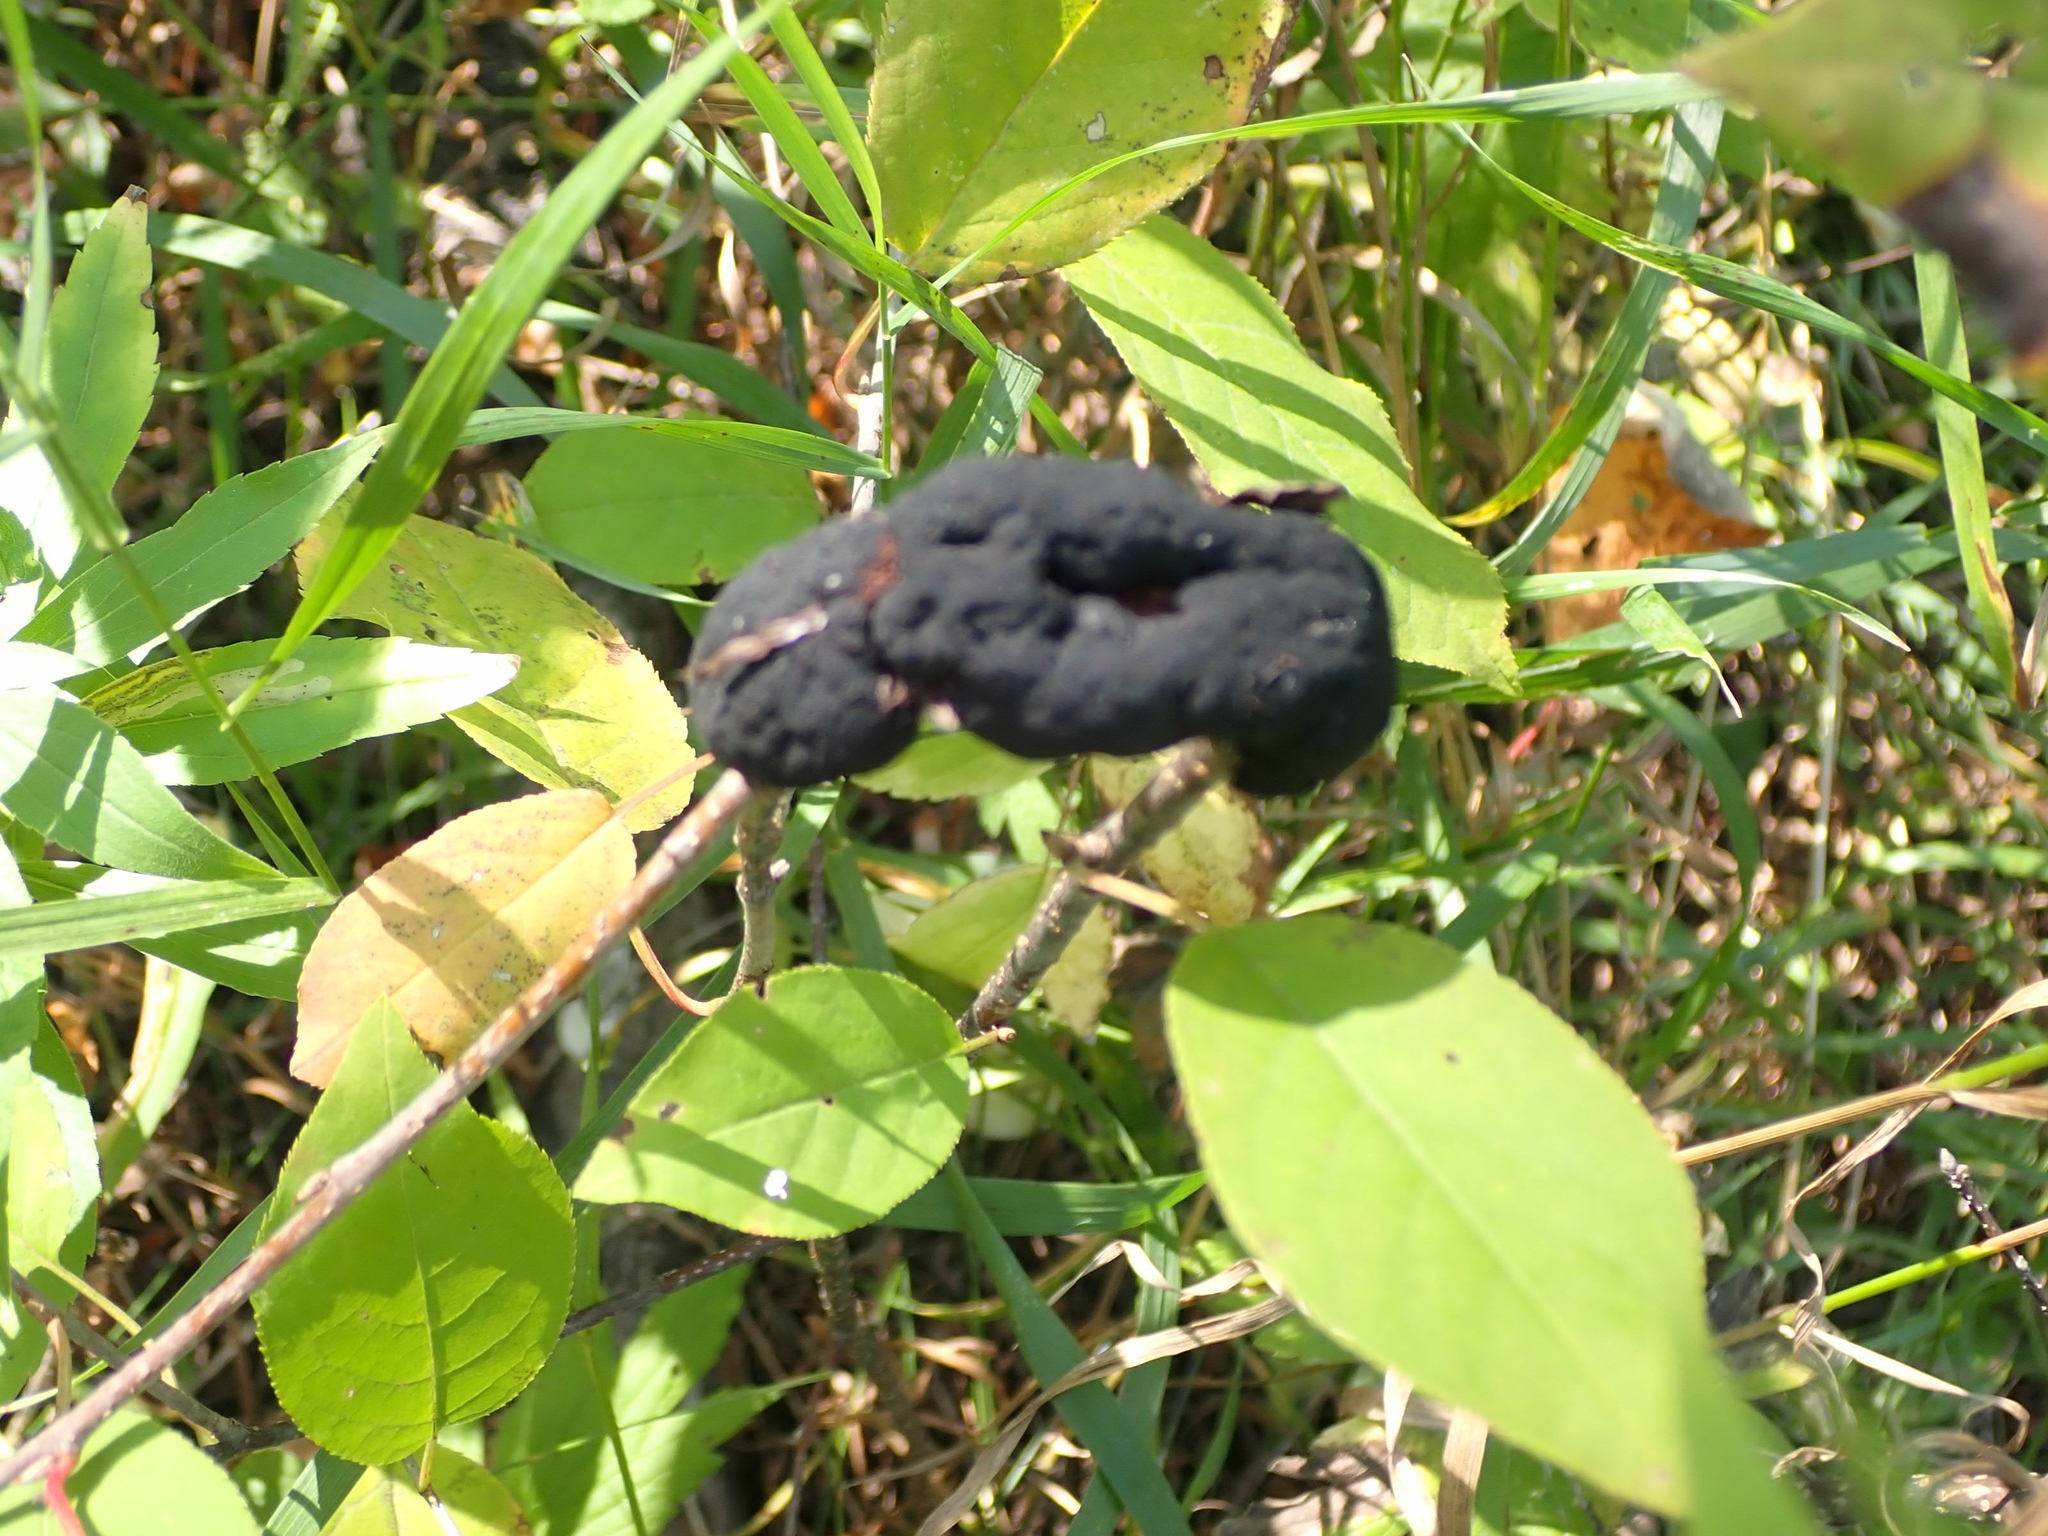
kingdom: Fungi
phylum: Ascomycota
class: Dothideomycetes
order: Venturiales
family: Venturiaceae
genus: Apiosporina
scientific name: Apiosporina morbosa
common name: Black knot
